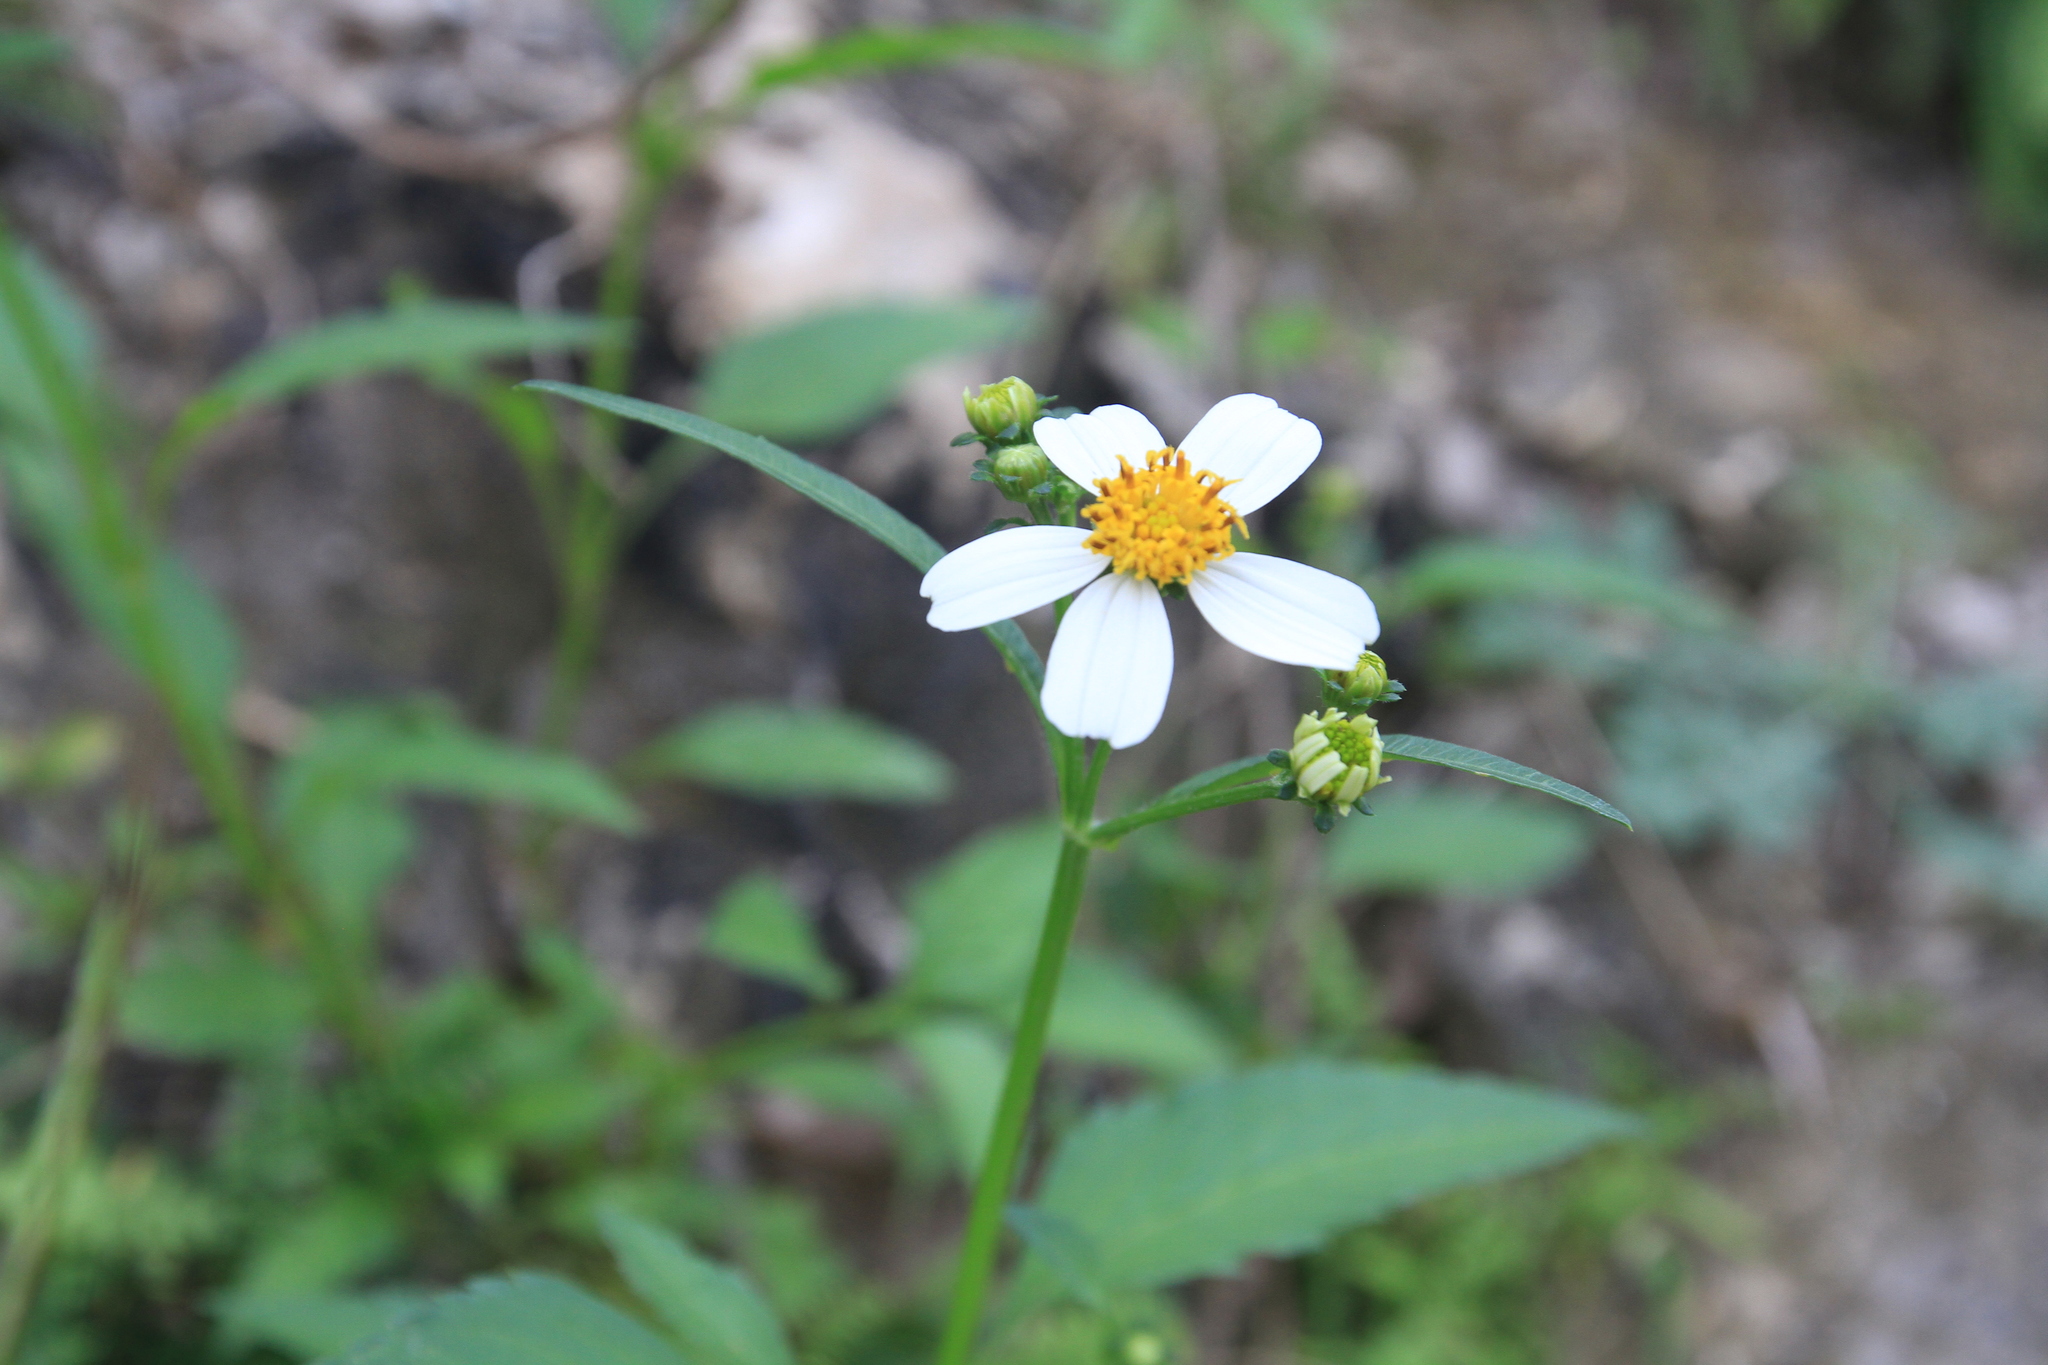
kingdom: Plantae
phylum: Tracheophyta
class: Magnoliopsida
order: Asterales
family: Asteraceae
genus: Bidens
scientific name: Bidens alba
